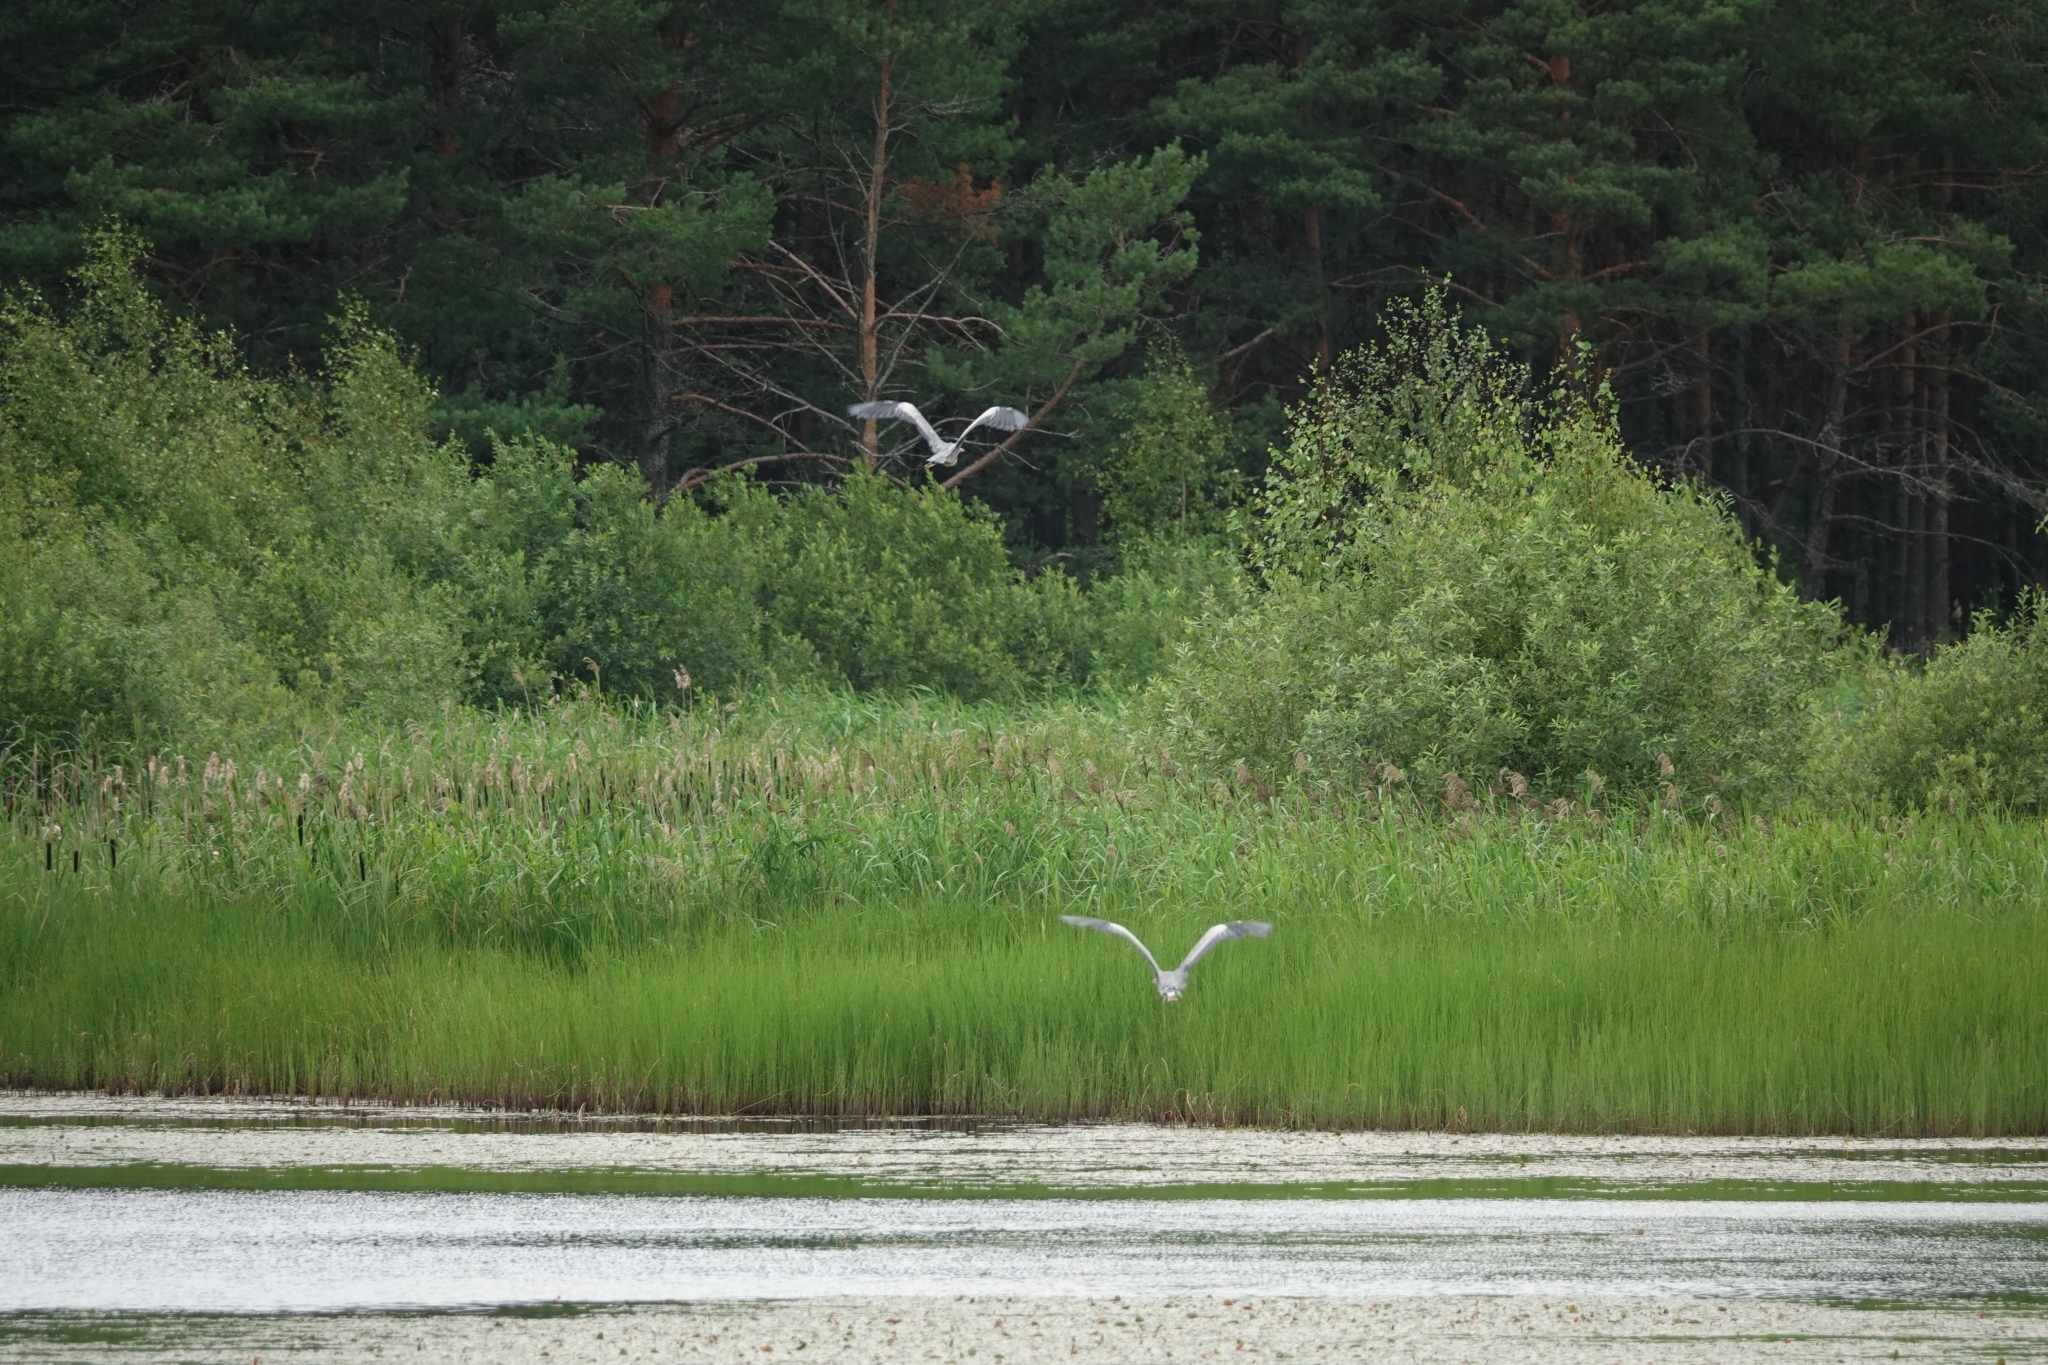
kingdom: Animalia
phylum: Chordata
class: Aves
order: Pelecaniformes
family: Ardeidae
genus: Ardea
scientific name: Ardea cinerea
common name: Grey heron
